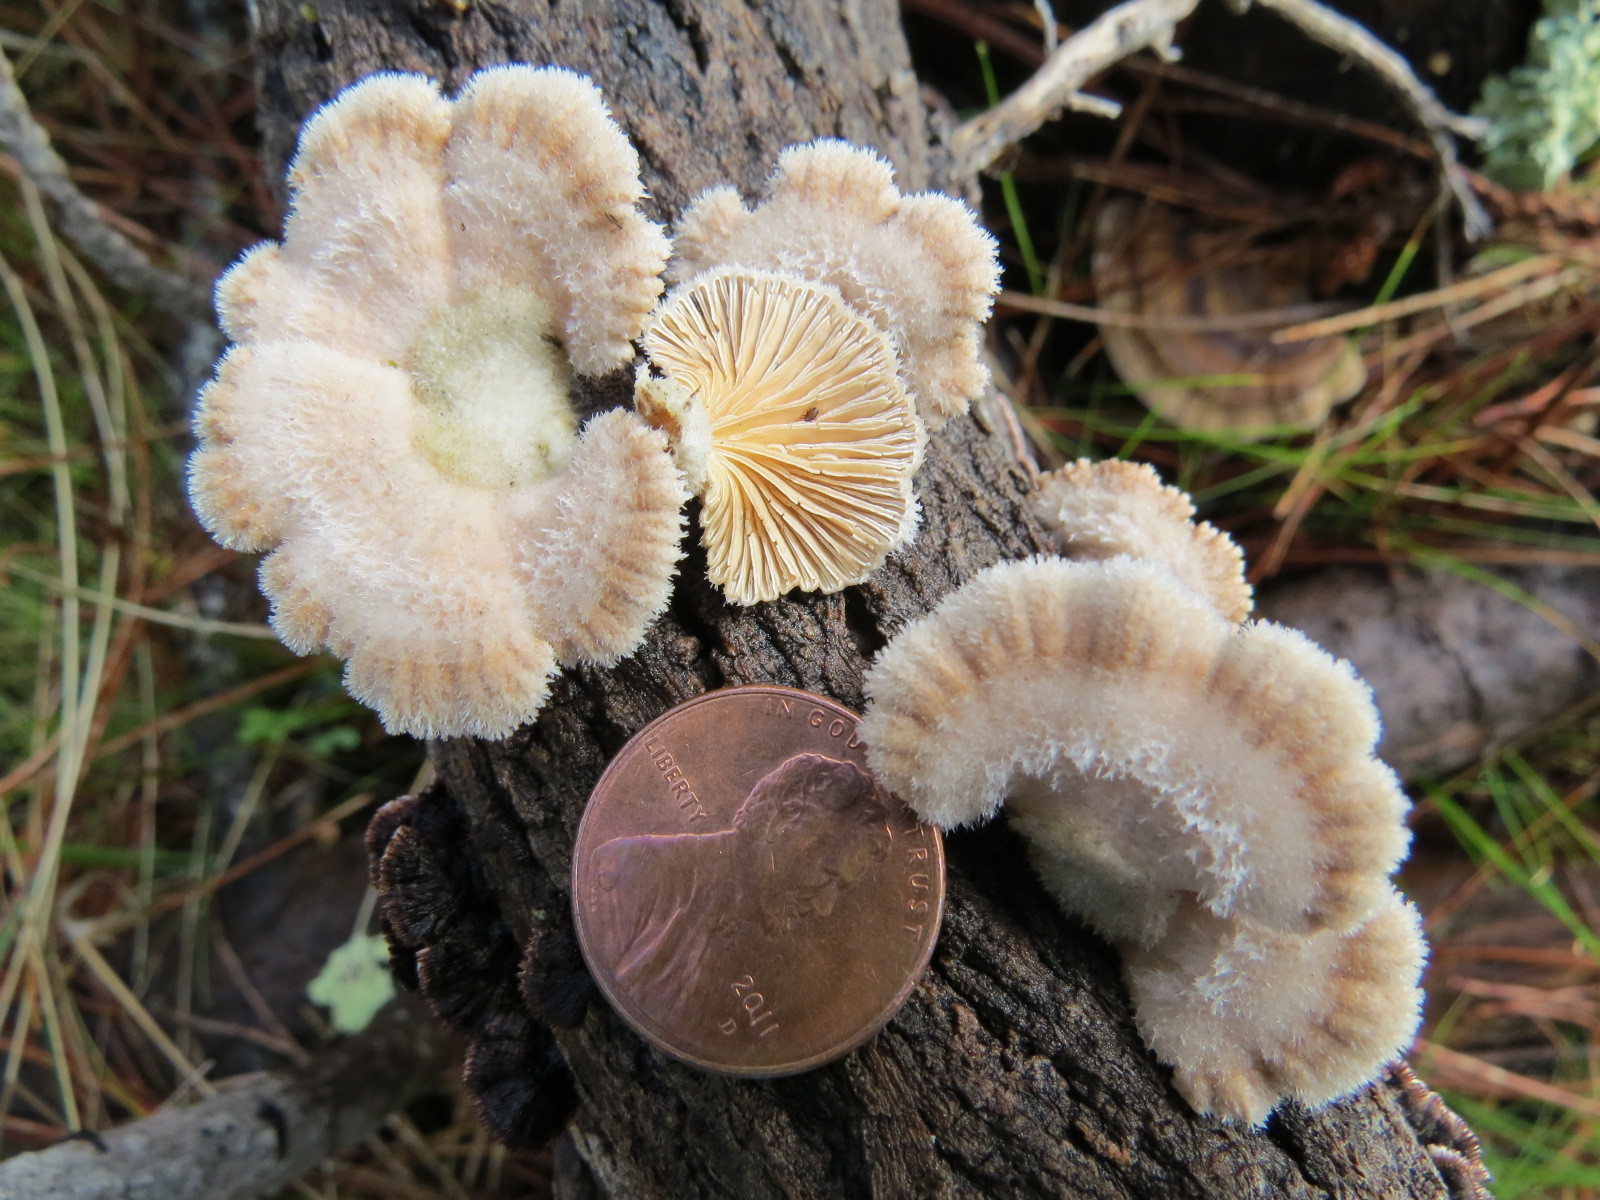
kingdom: Fungi
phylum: Basidiomycota
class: Agaricomycetes
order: Agaricales
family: Schizophyllaceae
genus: Schizophyllum
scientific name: Schizophyllum commune
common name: Common porecrust
